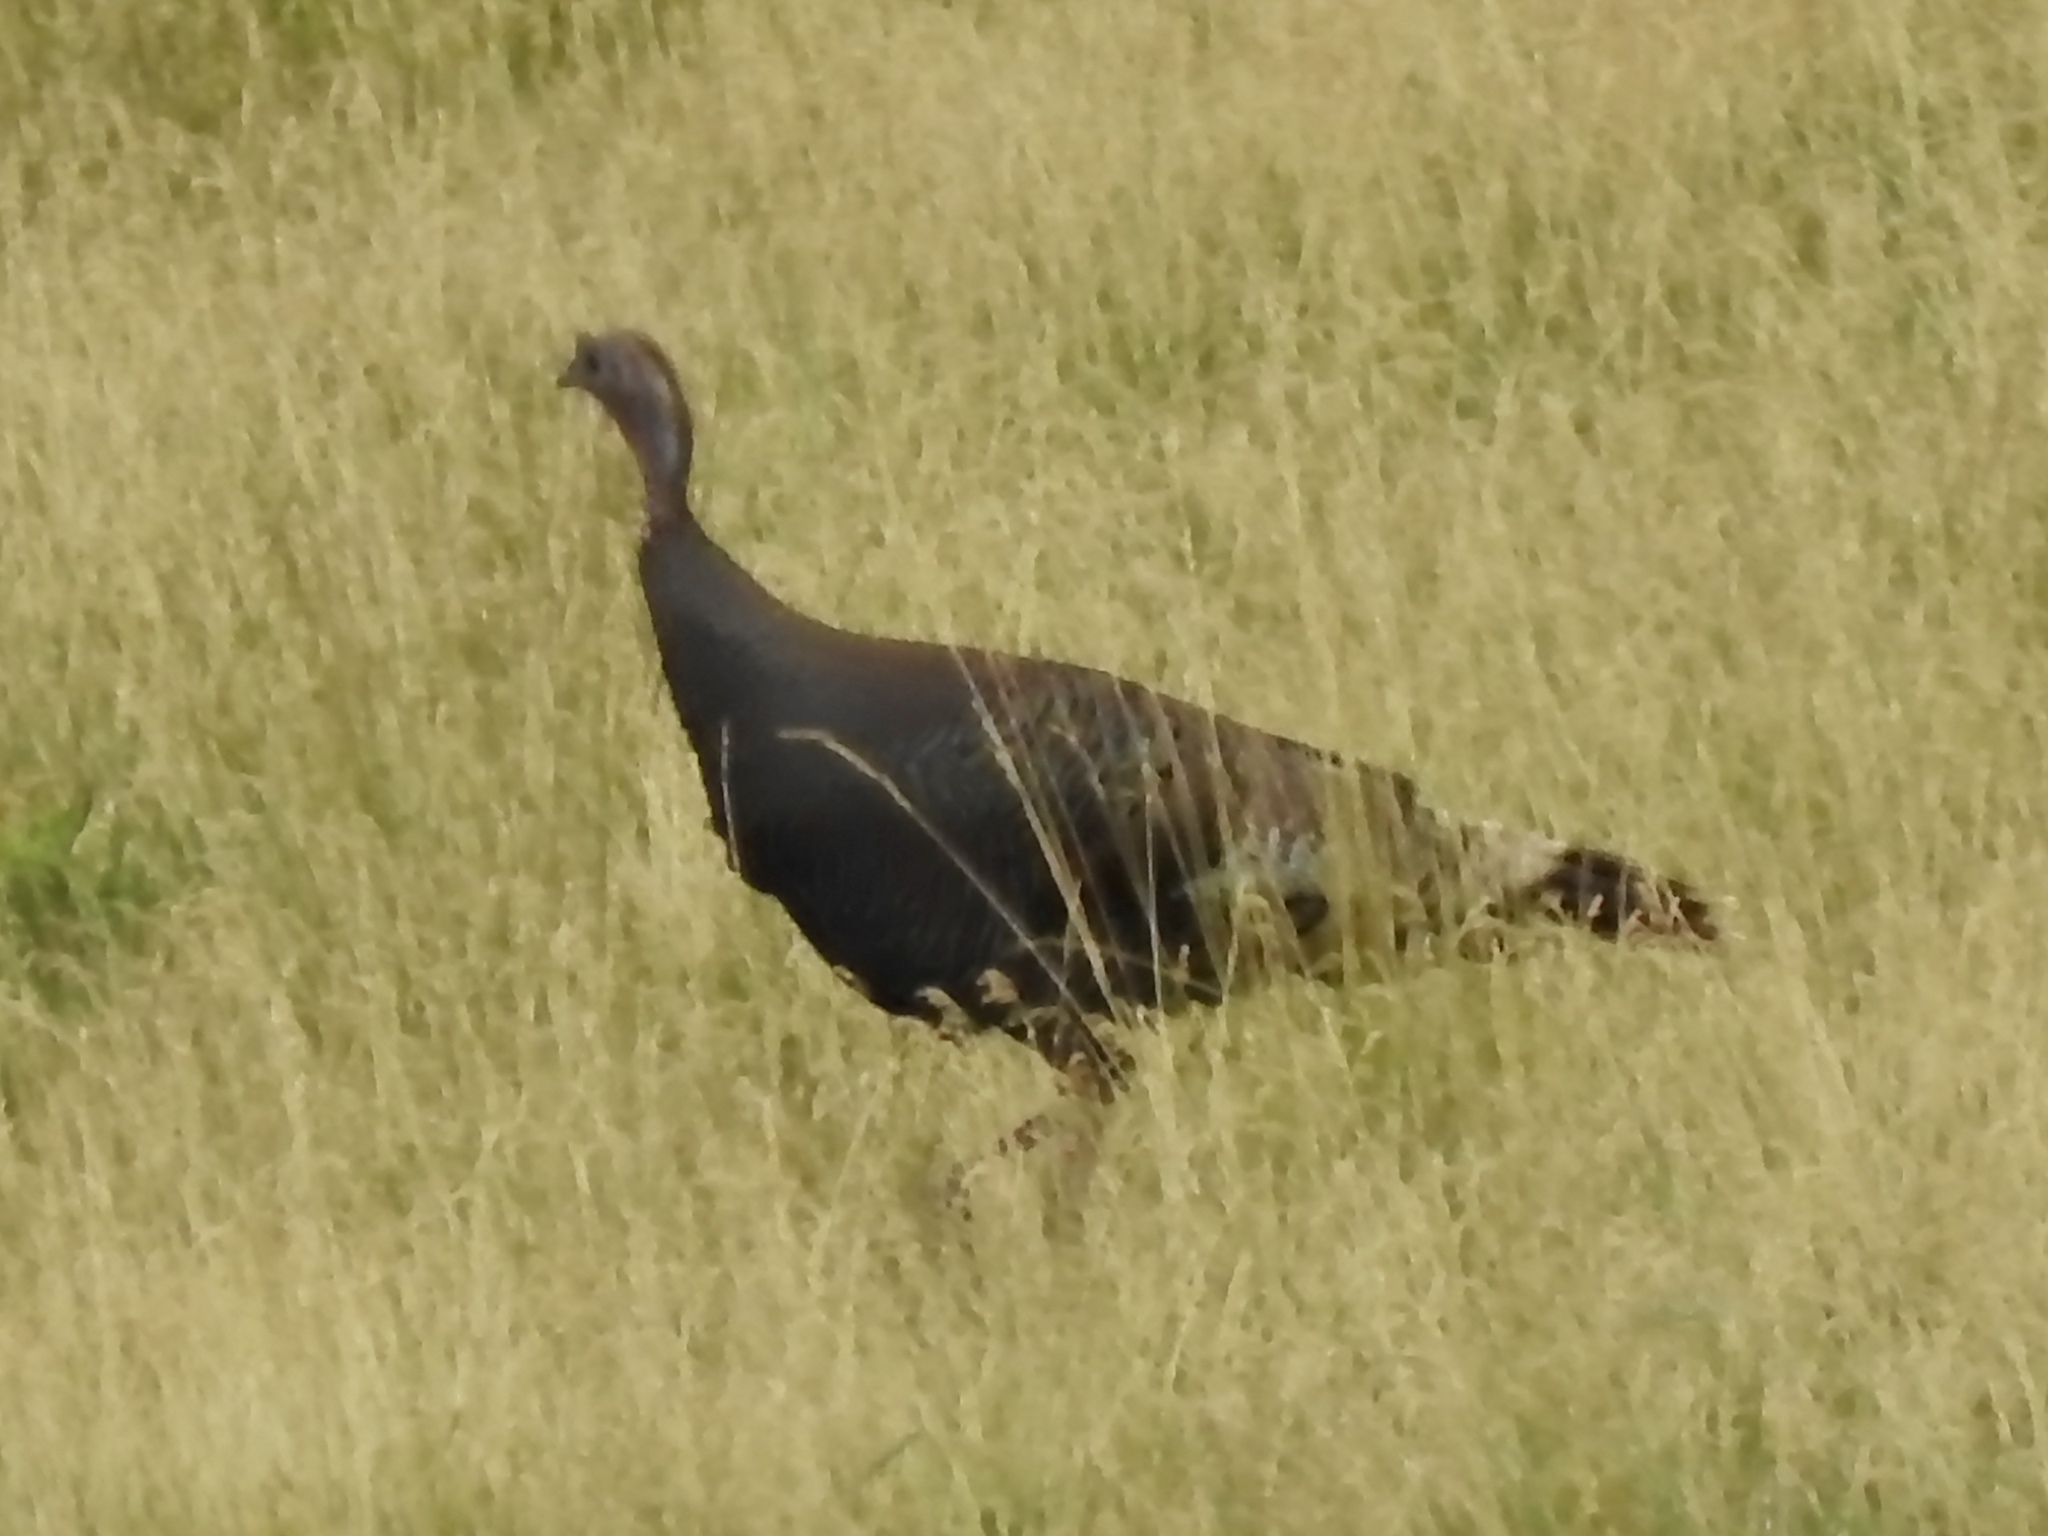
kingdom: Animalia
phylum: Chordata
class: Aves
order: Galliformes
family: Phasianidae
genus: Meleagris
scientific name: Meleagris gallopavo
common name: Wild turkey
